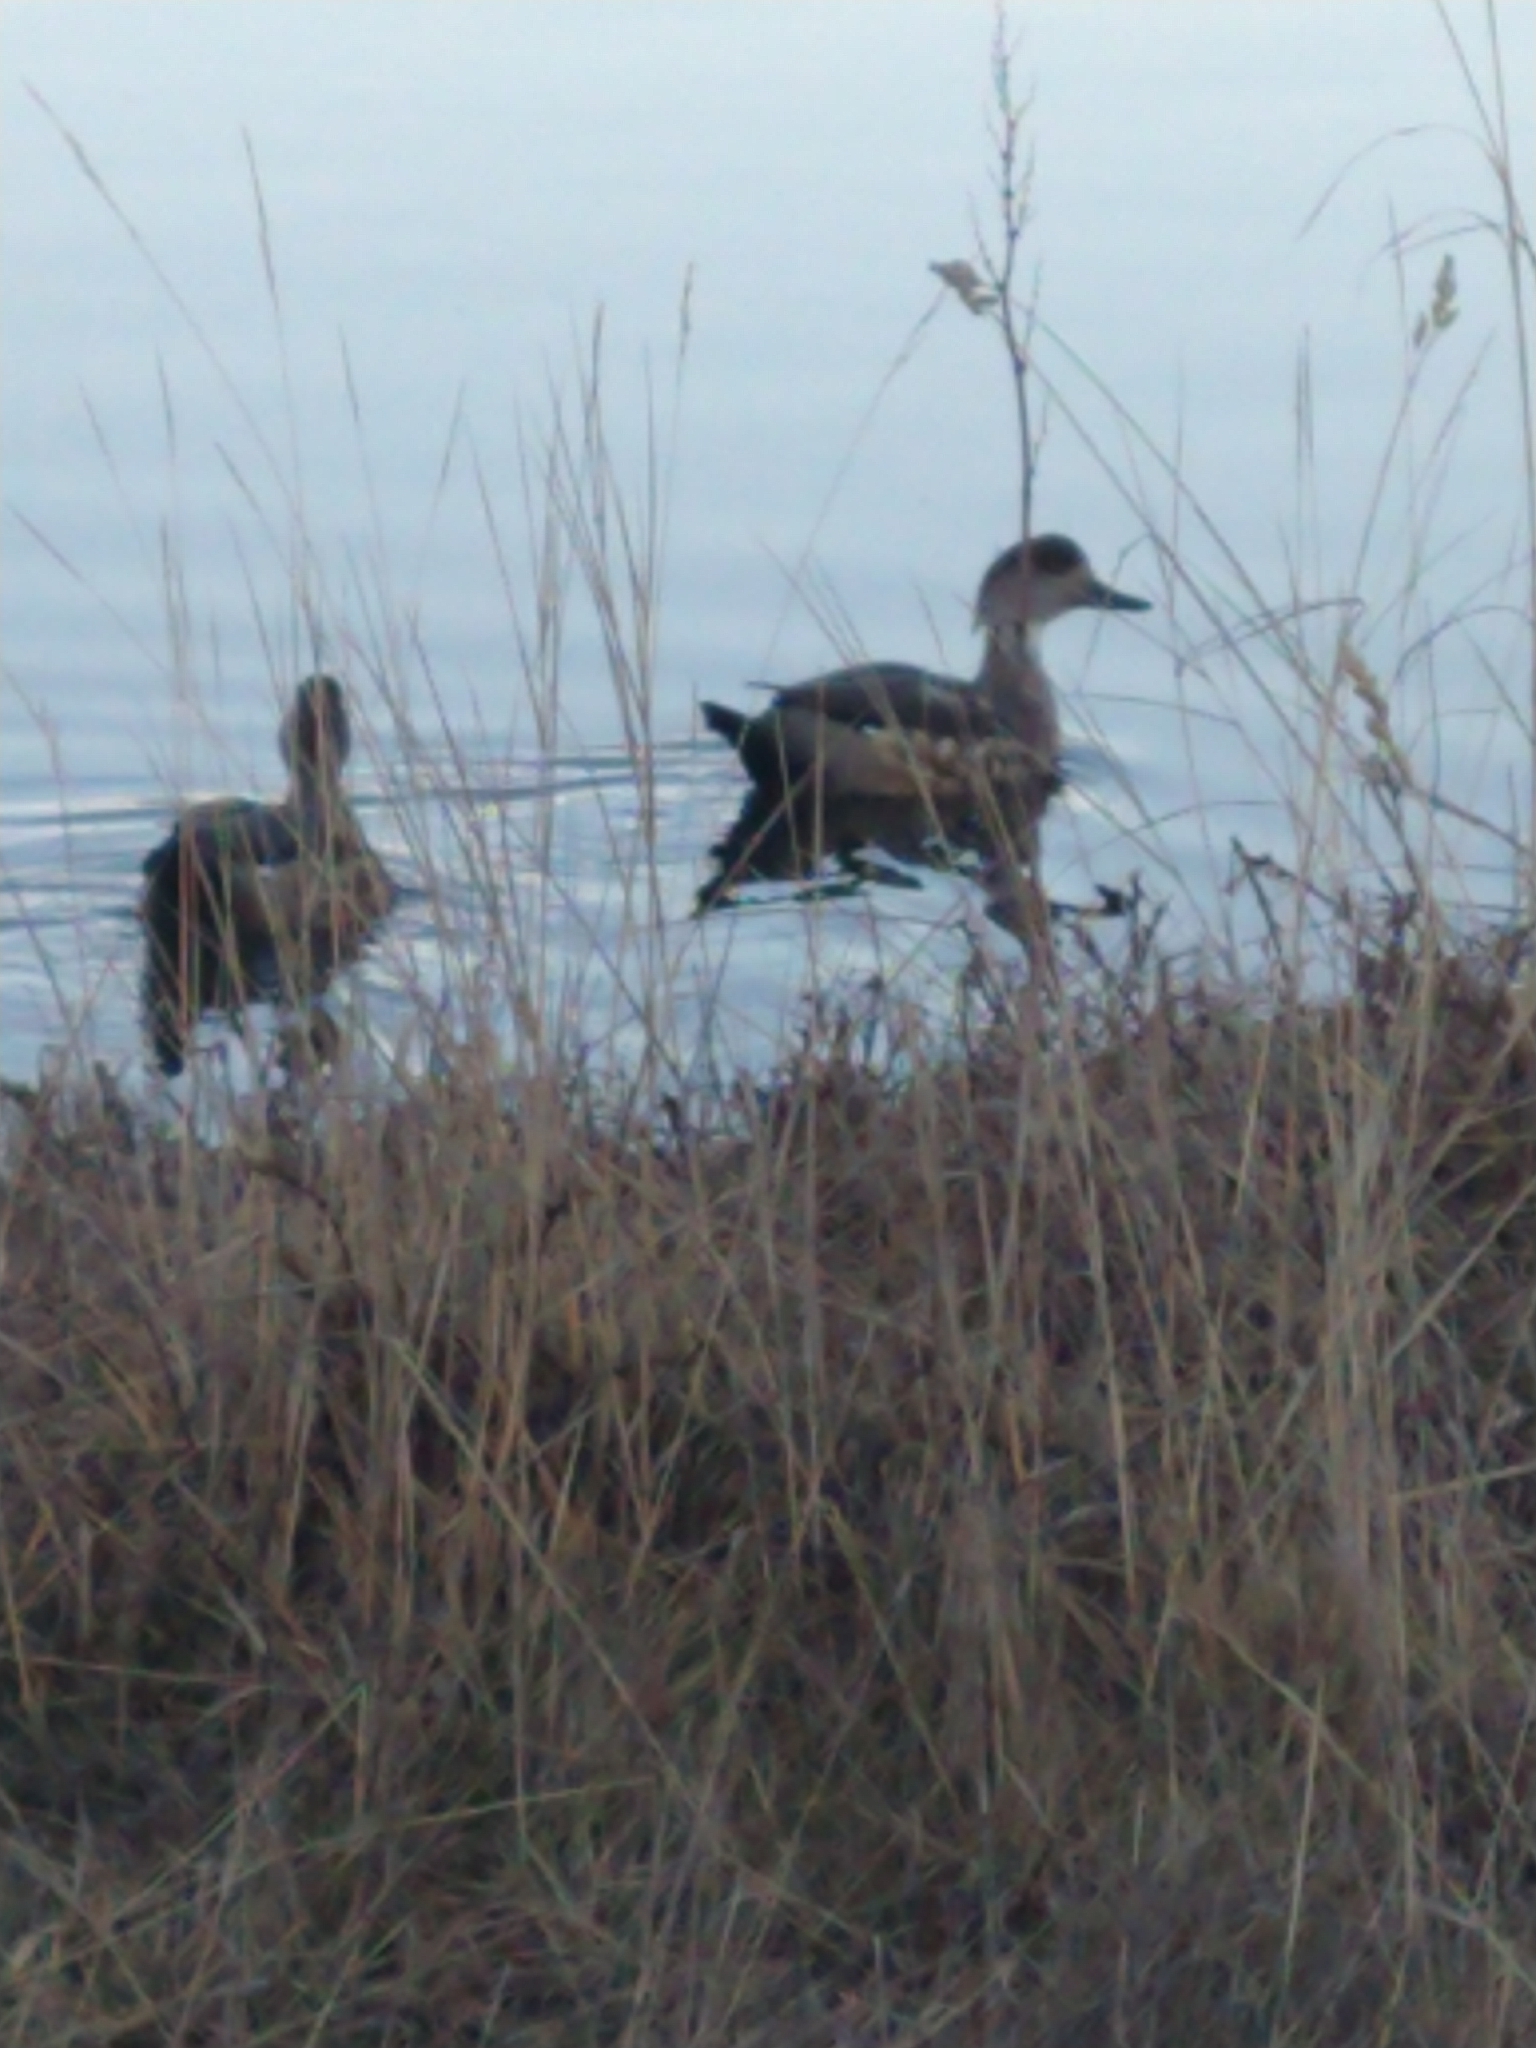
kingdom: Animalia
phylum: Chordata
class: Aves
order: Anseriformes
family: Anatidae
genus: Lophonetta
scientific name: Lophonetta specularioides
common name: Crested duck
